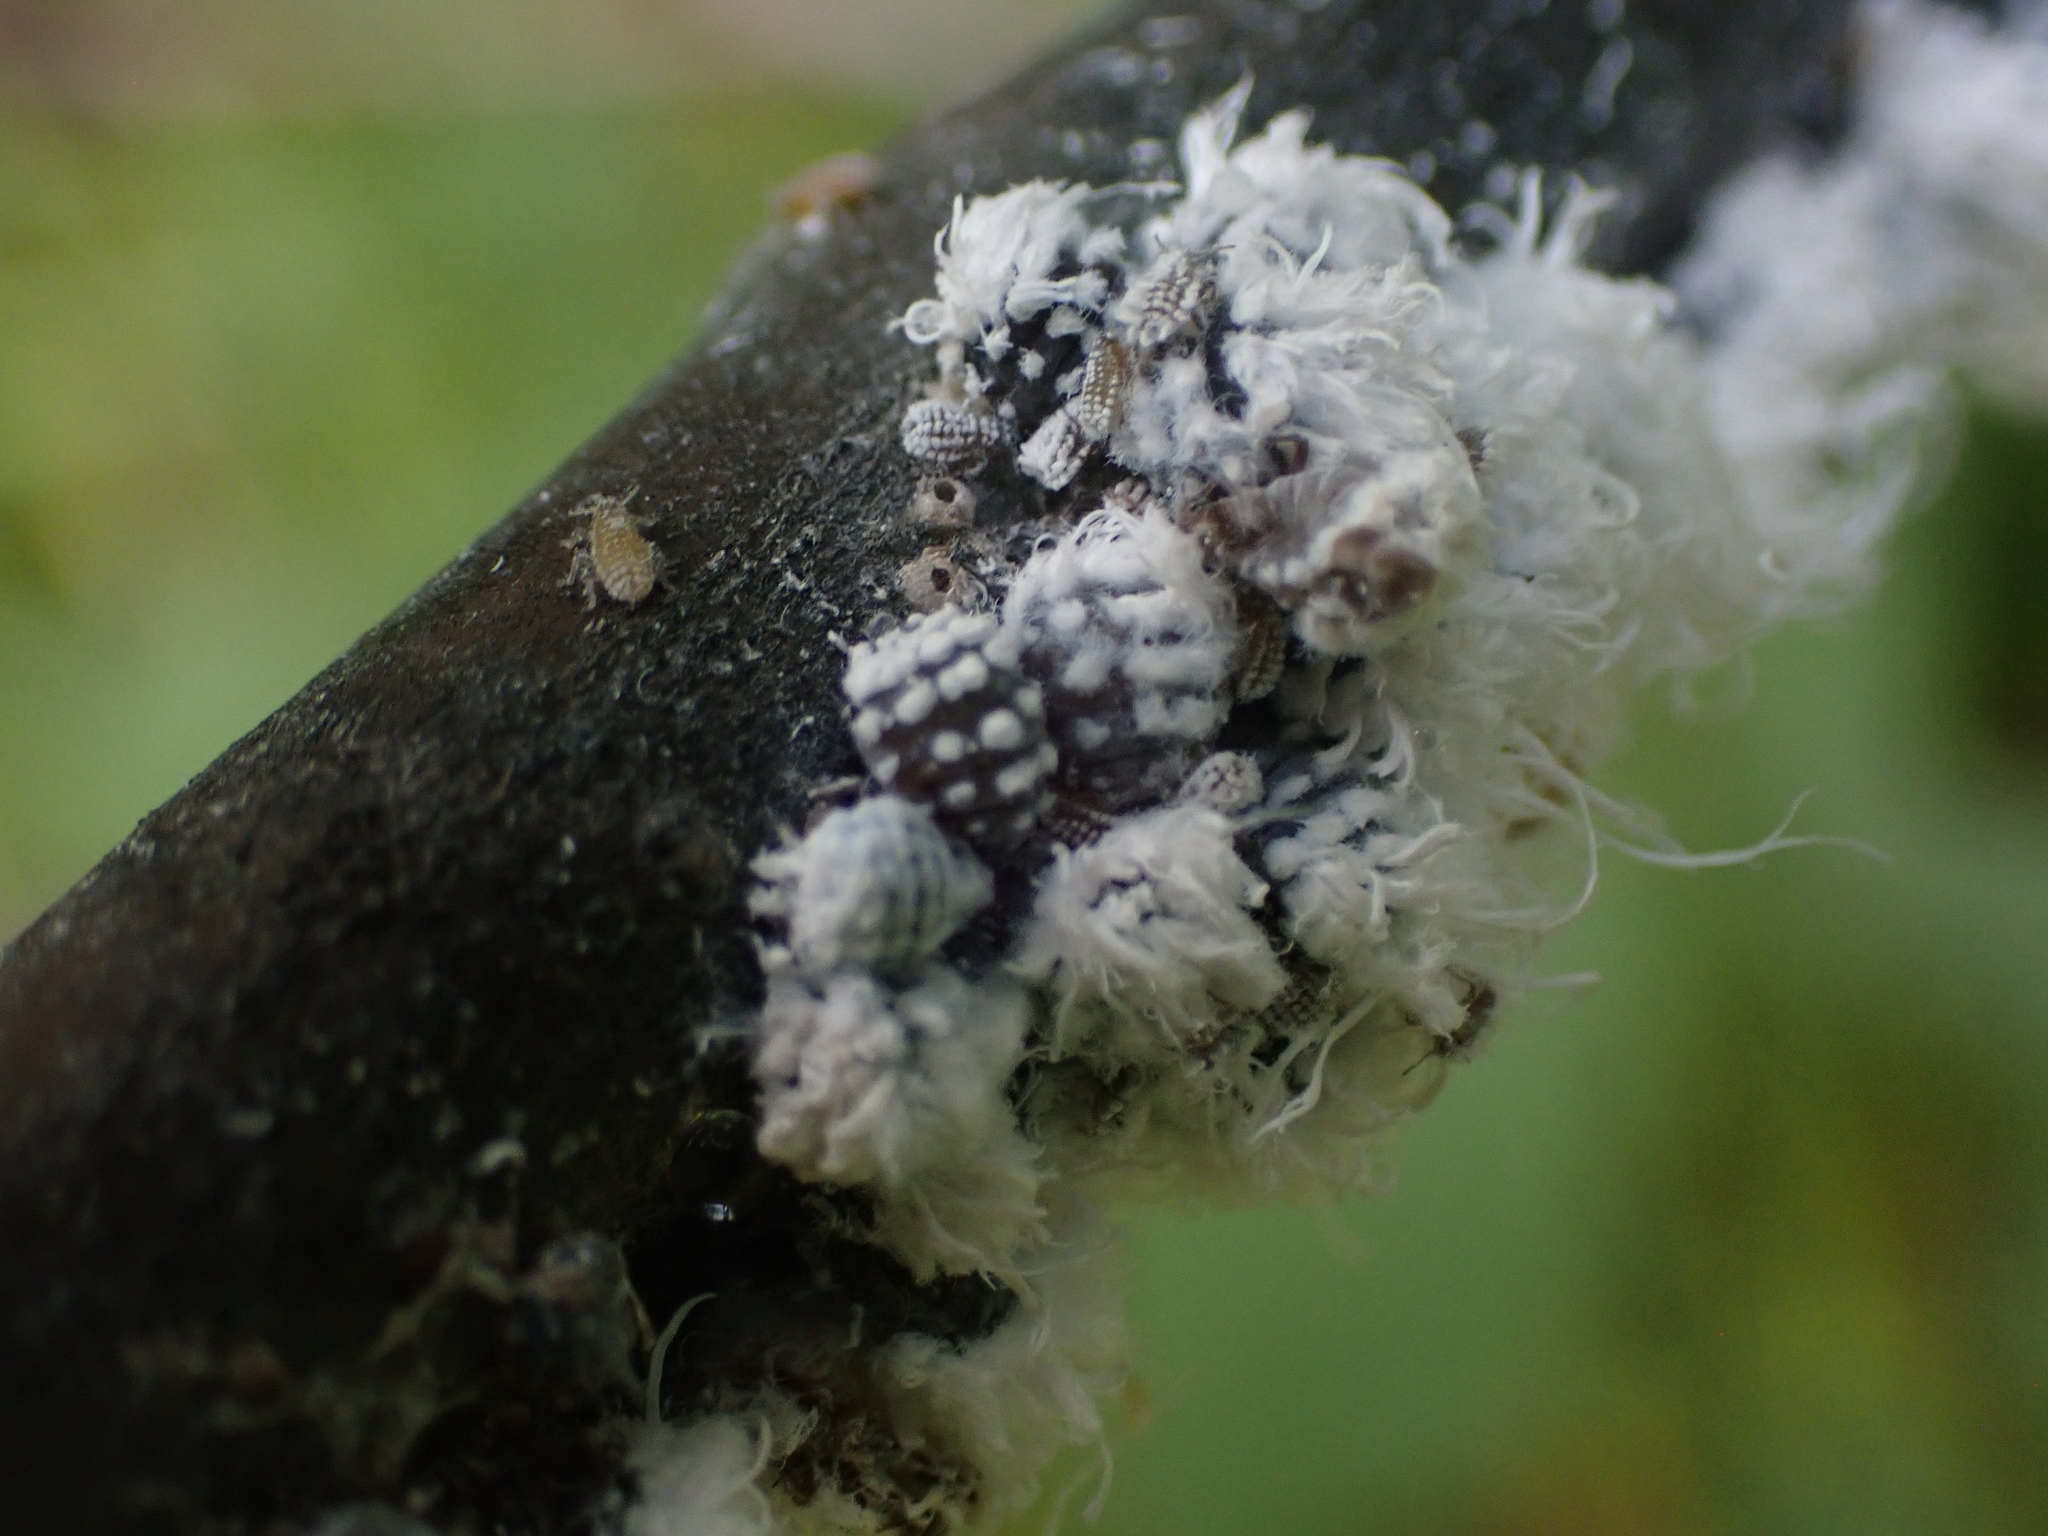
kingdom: Animalia
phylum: Arthropoda
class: Insecta
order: Hemiptera
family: Aphididae
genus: Prociphilus
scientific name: Prociphilus tessellatus
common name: Woolly alder aphid
